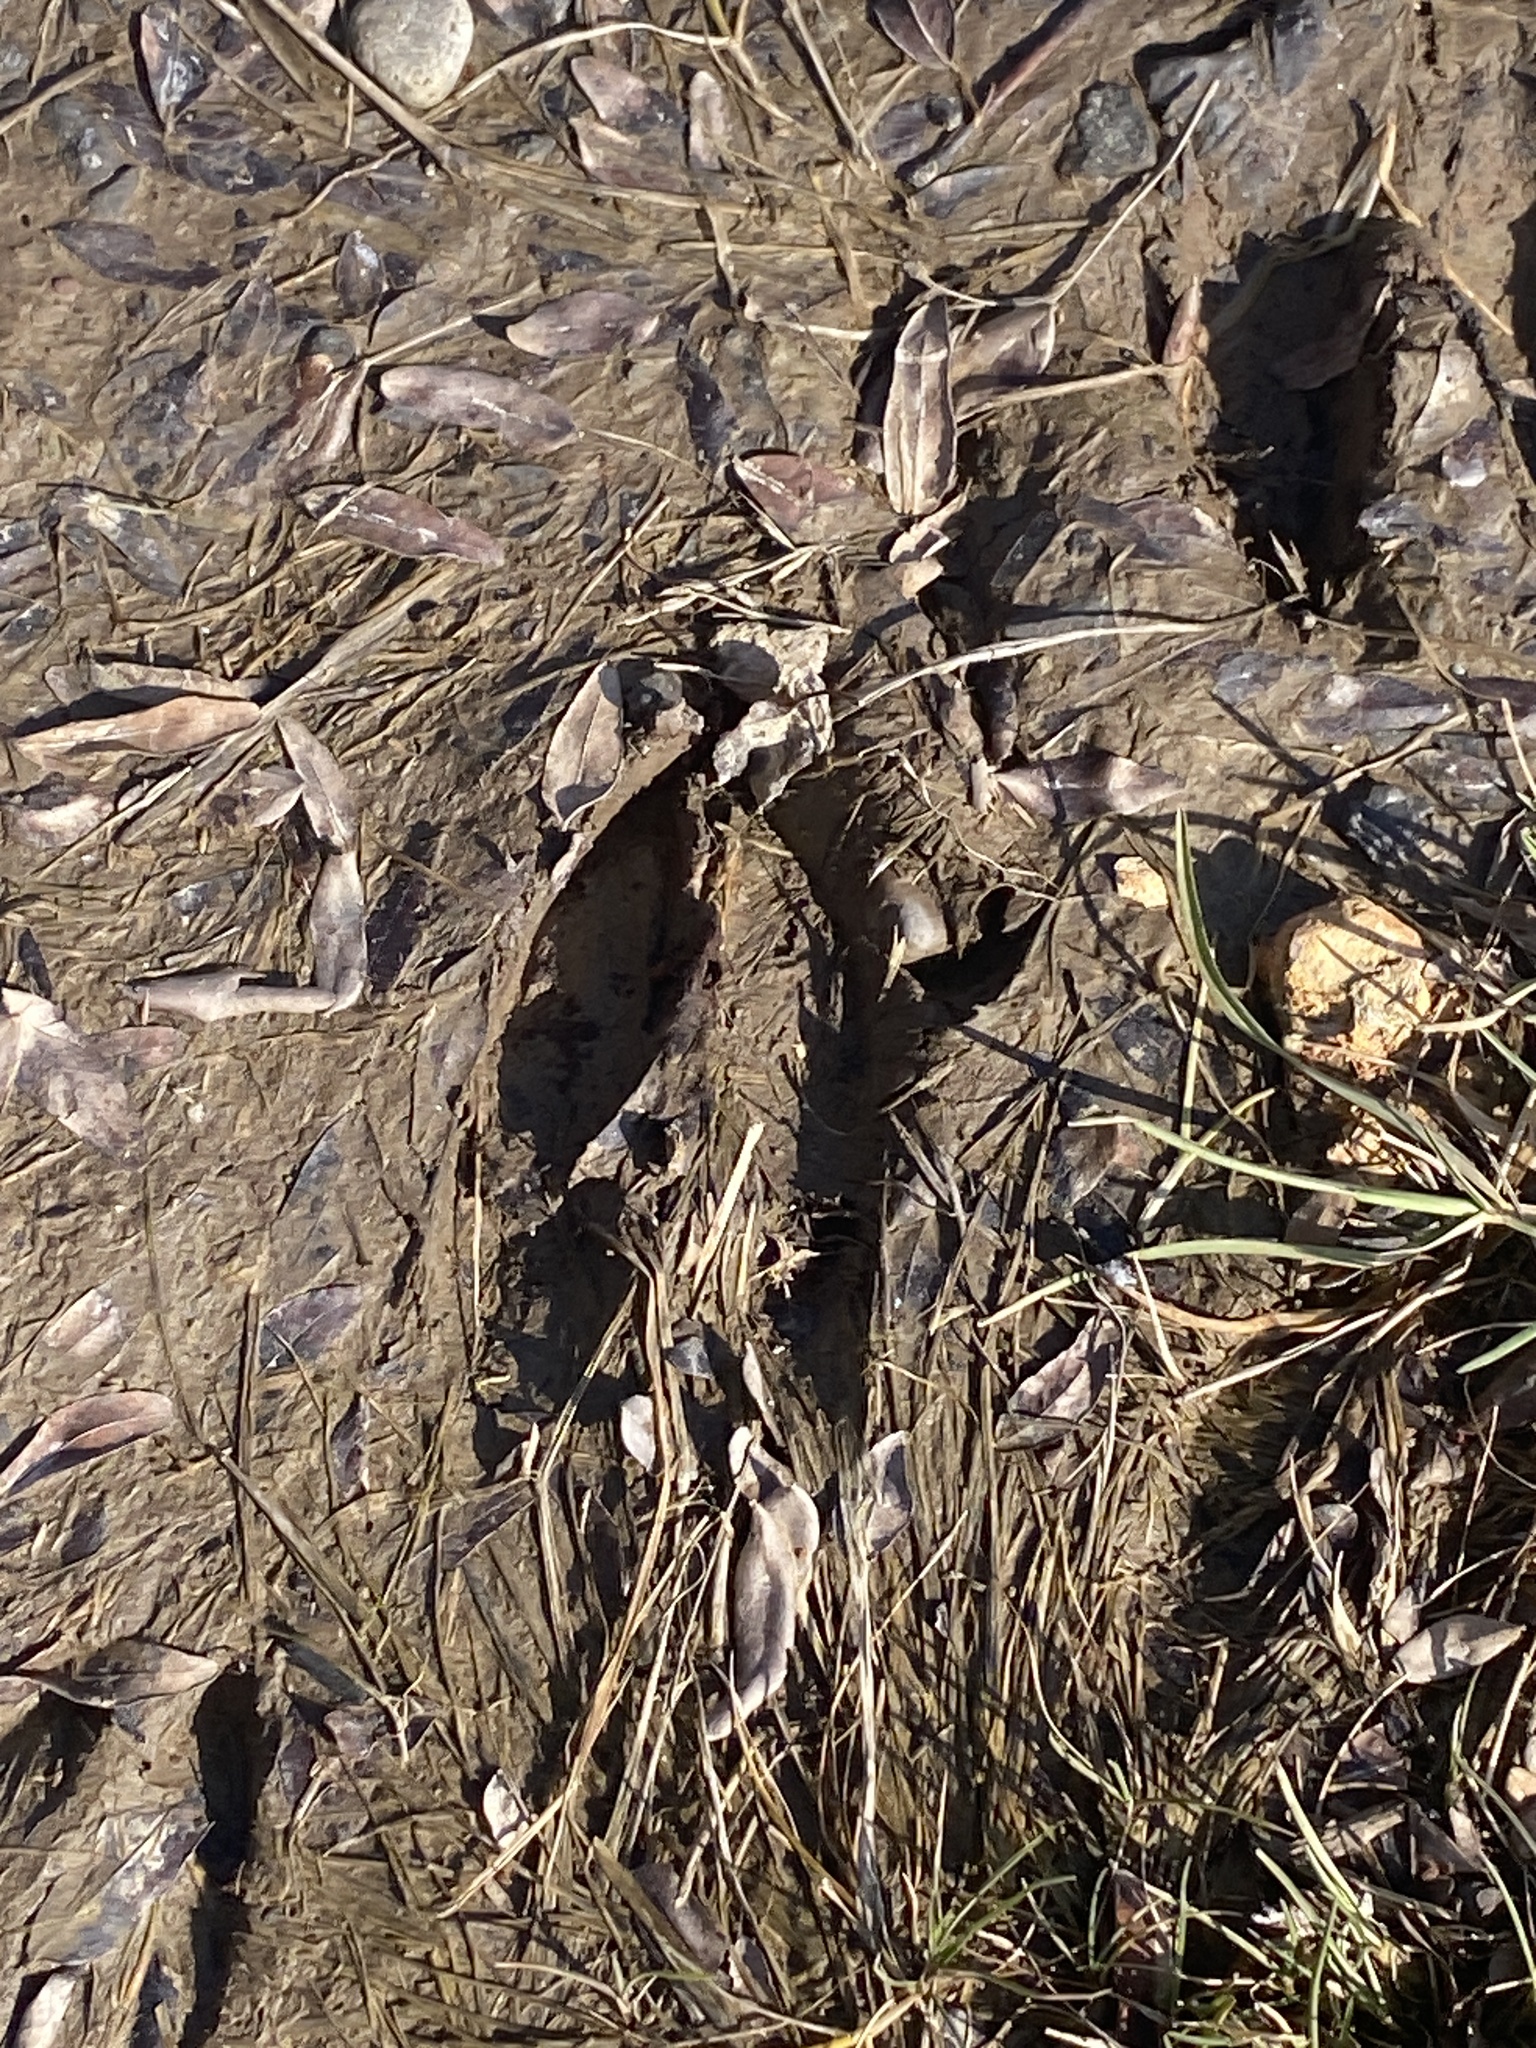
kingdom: Animalia
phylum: Chordata
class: Mammalia
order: Artiodactyla
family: Cervidae
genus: Odocoileus
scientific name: Odocoileus virginianus
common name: White-tailed deer
